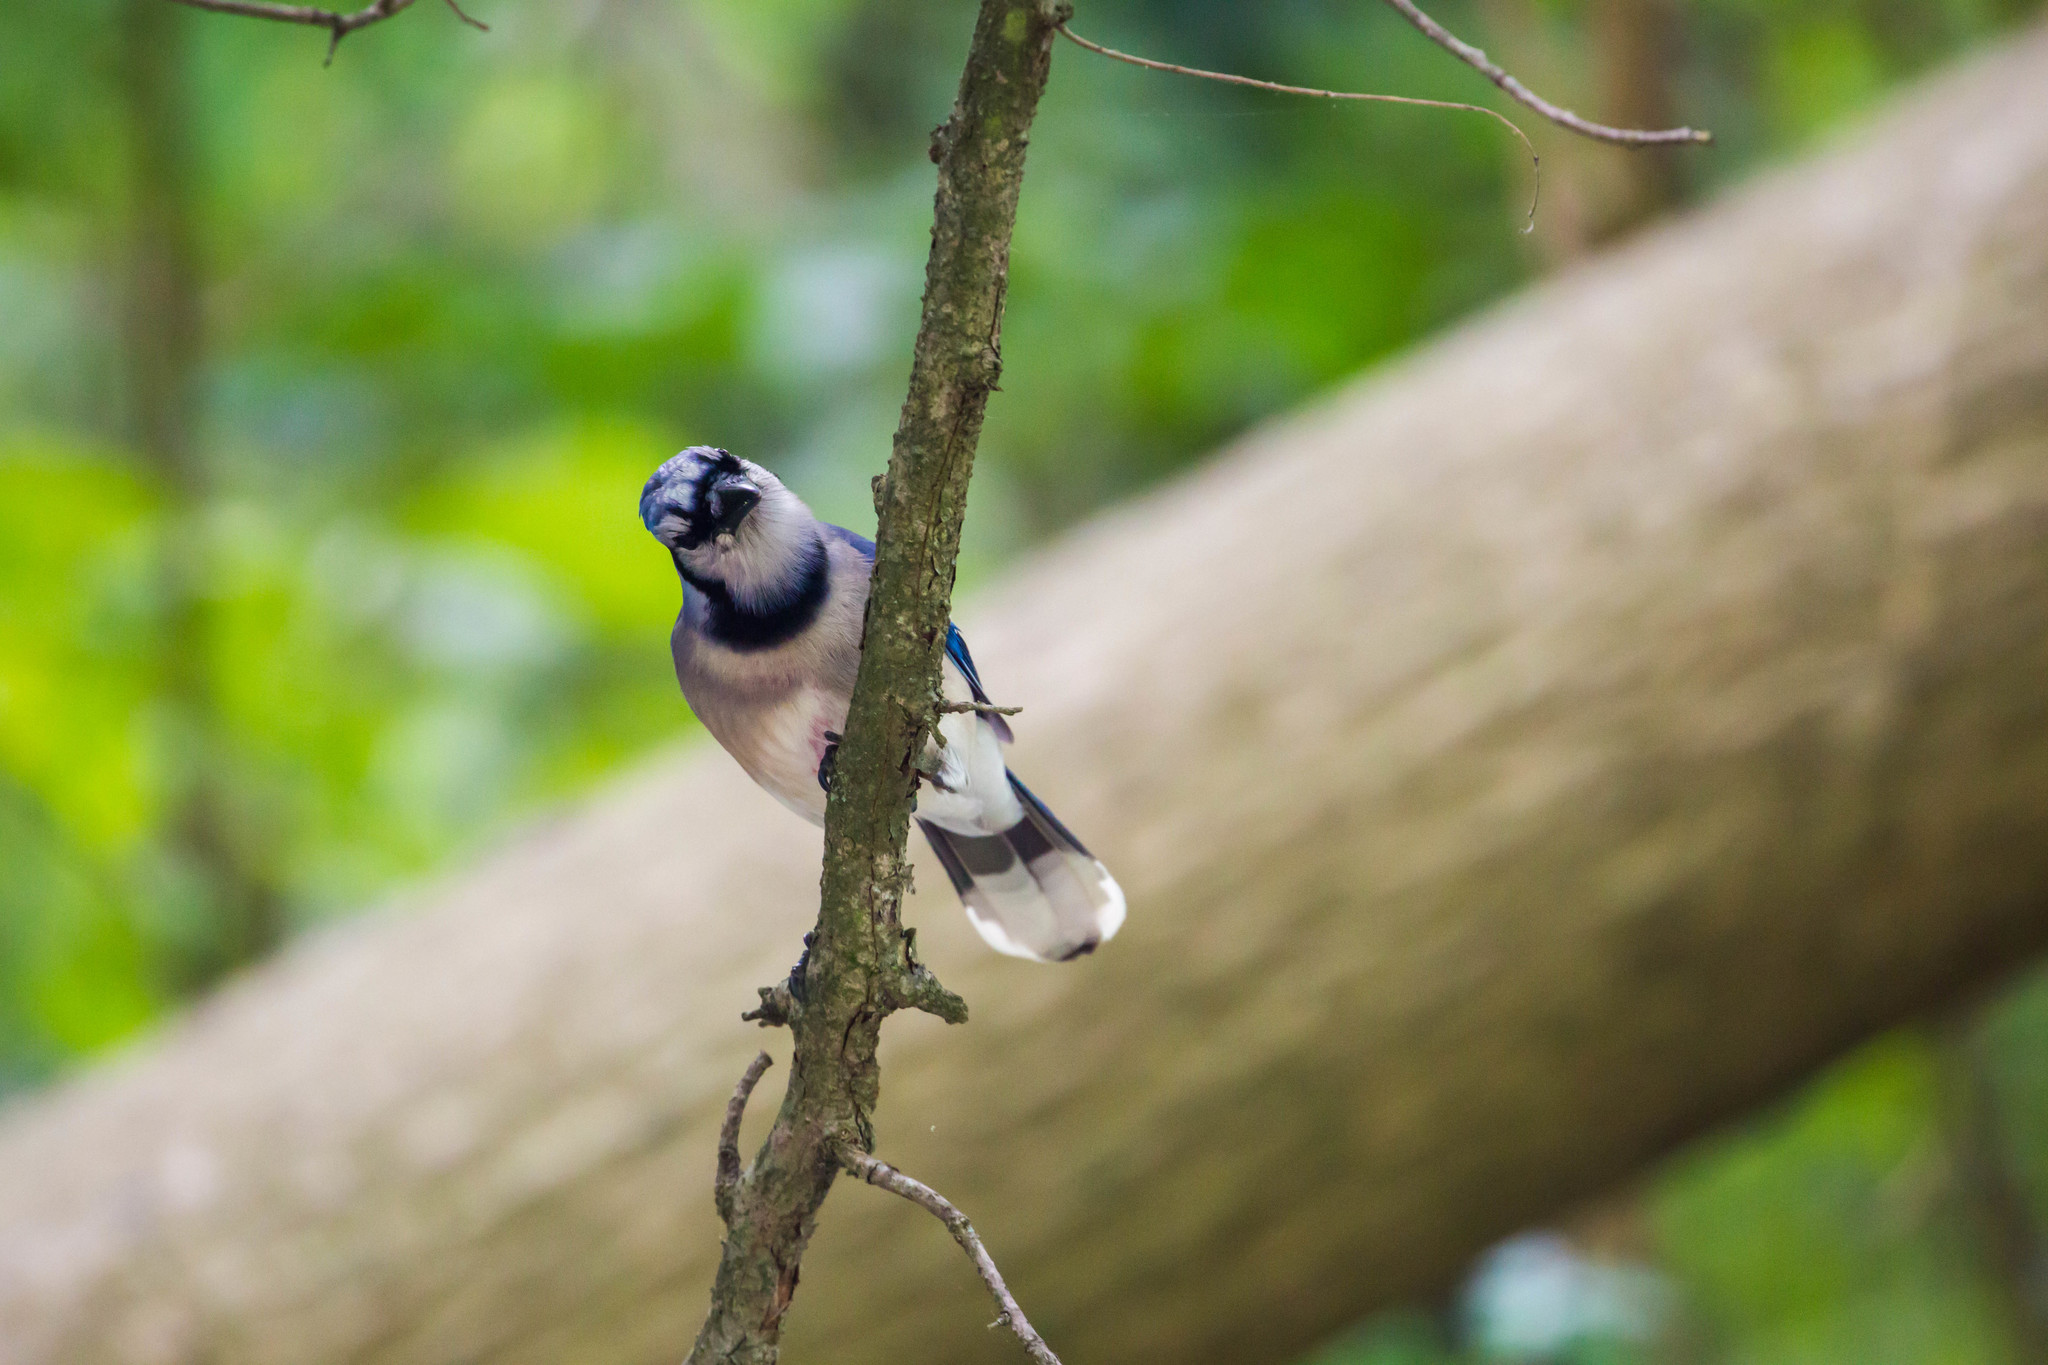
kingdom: Animalia
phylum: Chordata
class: Aves
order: Passeriformes
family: Corvidae
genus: Cyanocitta
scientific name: Cyanocitta cristata
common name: Blue jay
